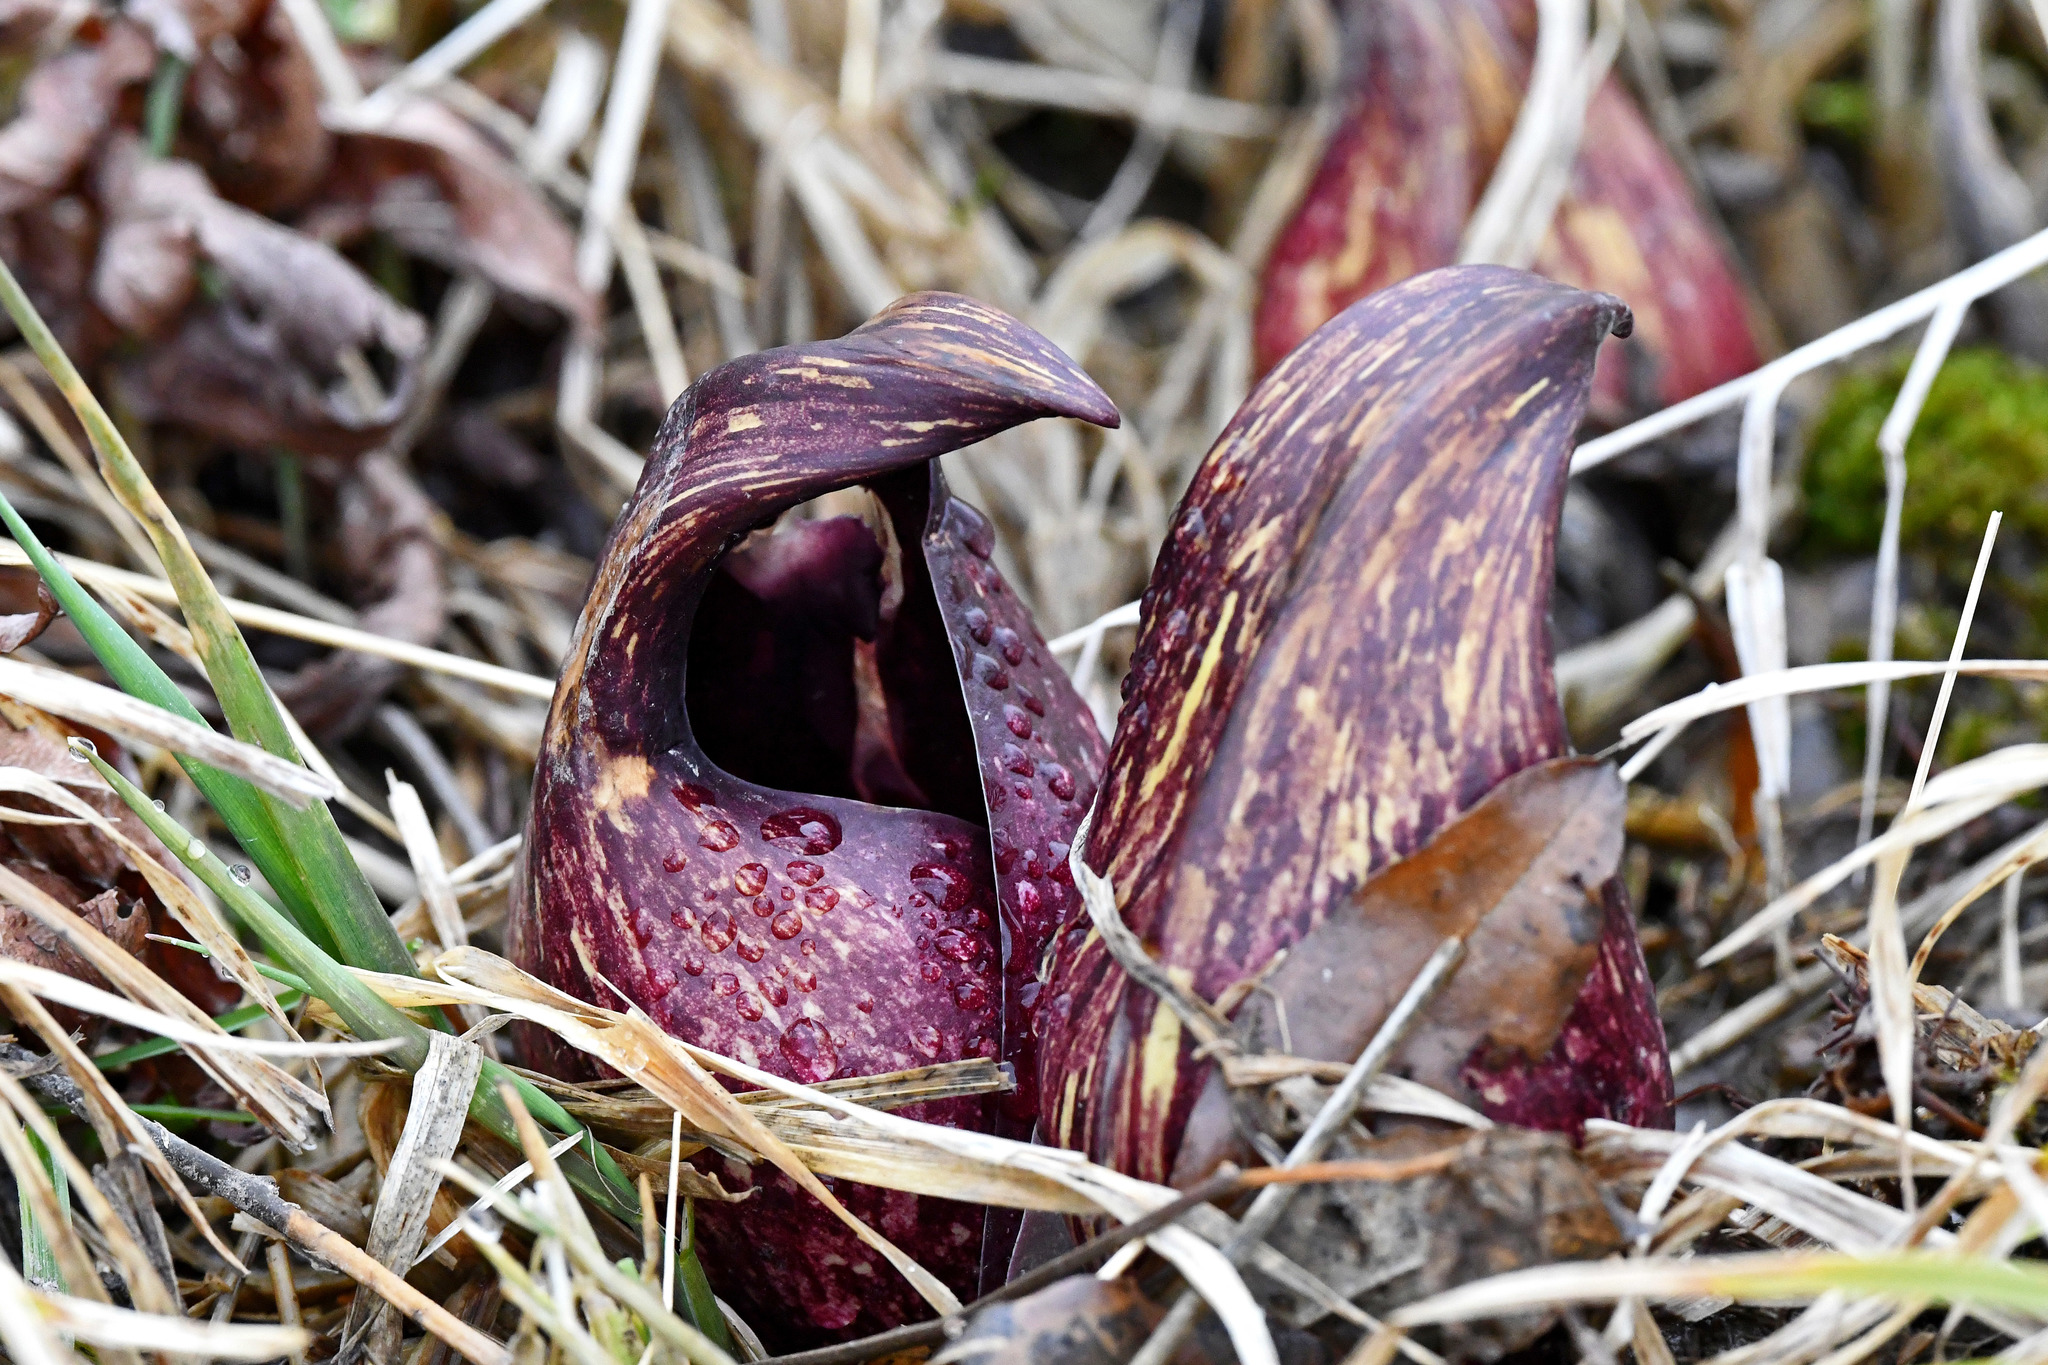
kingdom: Plantae
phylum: Tracheophyta
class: Liliopsida
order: Alismatales
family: Araceae
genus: Symplocarpus
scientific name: Symplocarpus foetidus
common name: Eastern skunk cabbage
